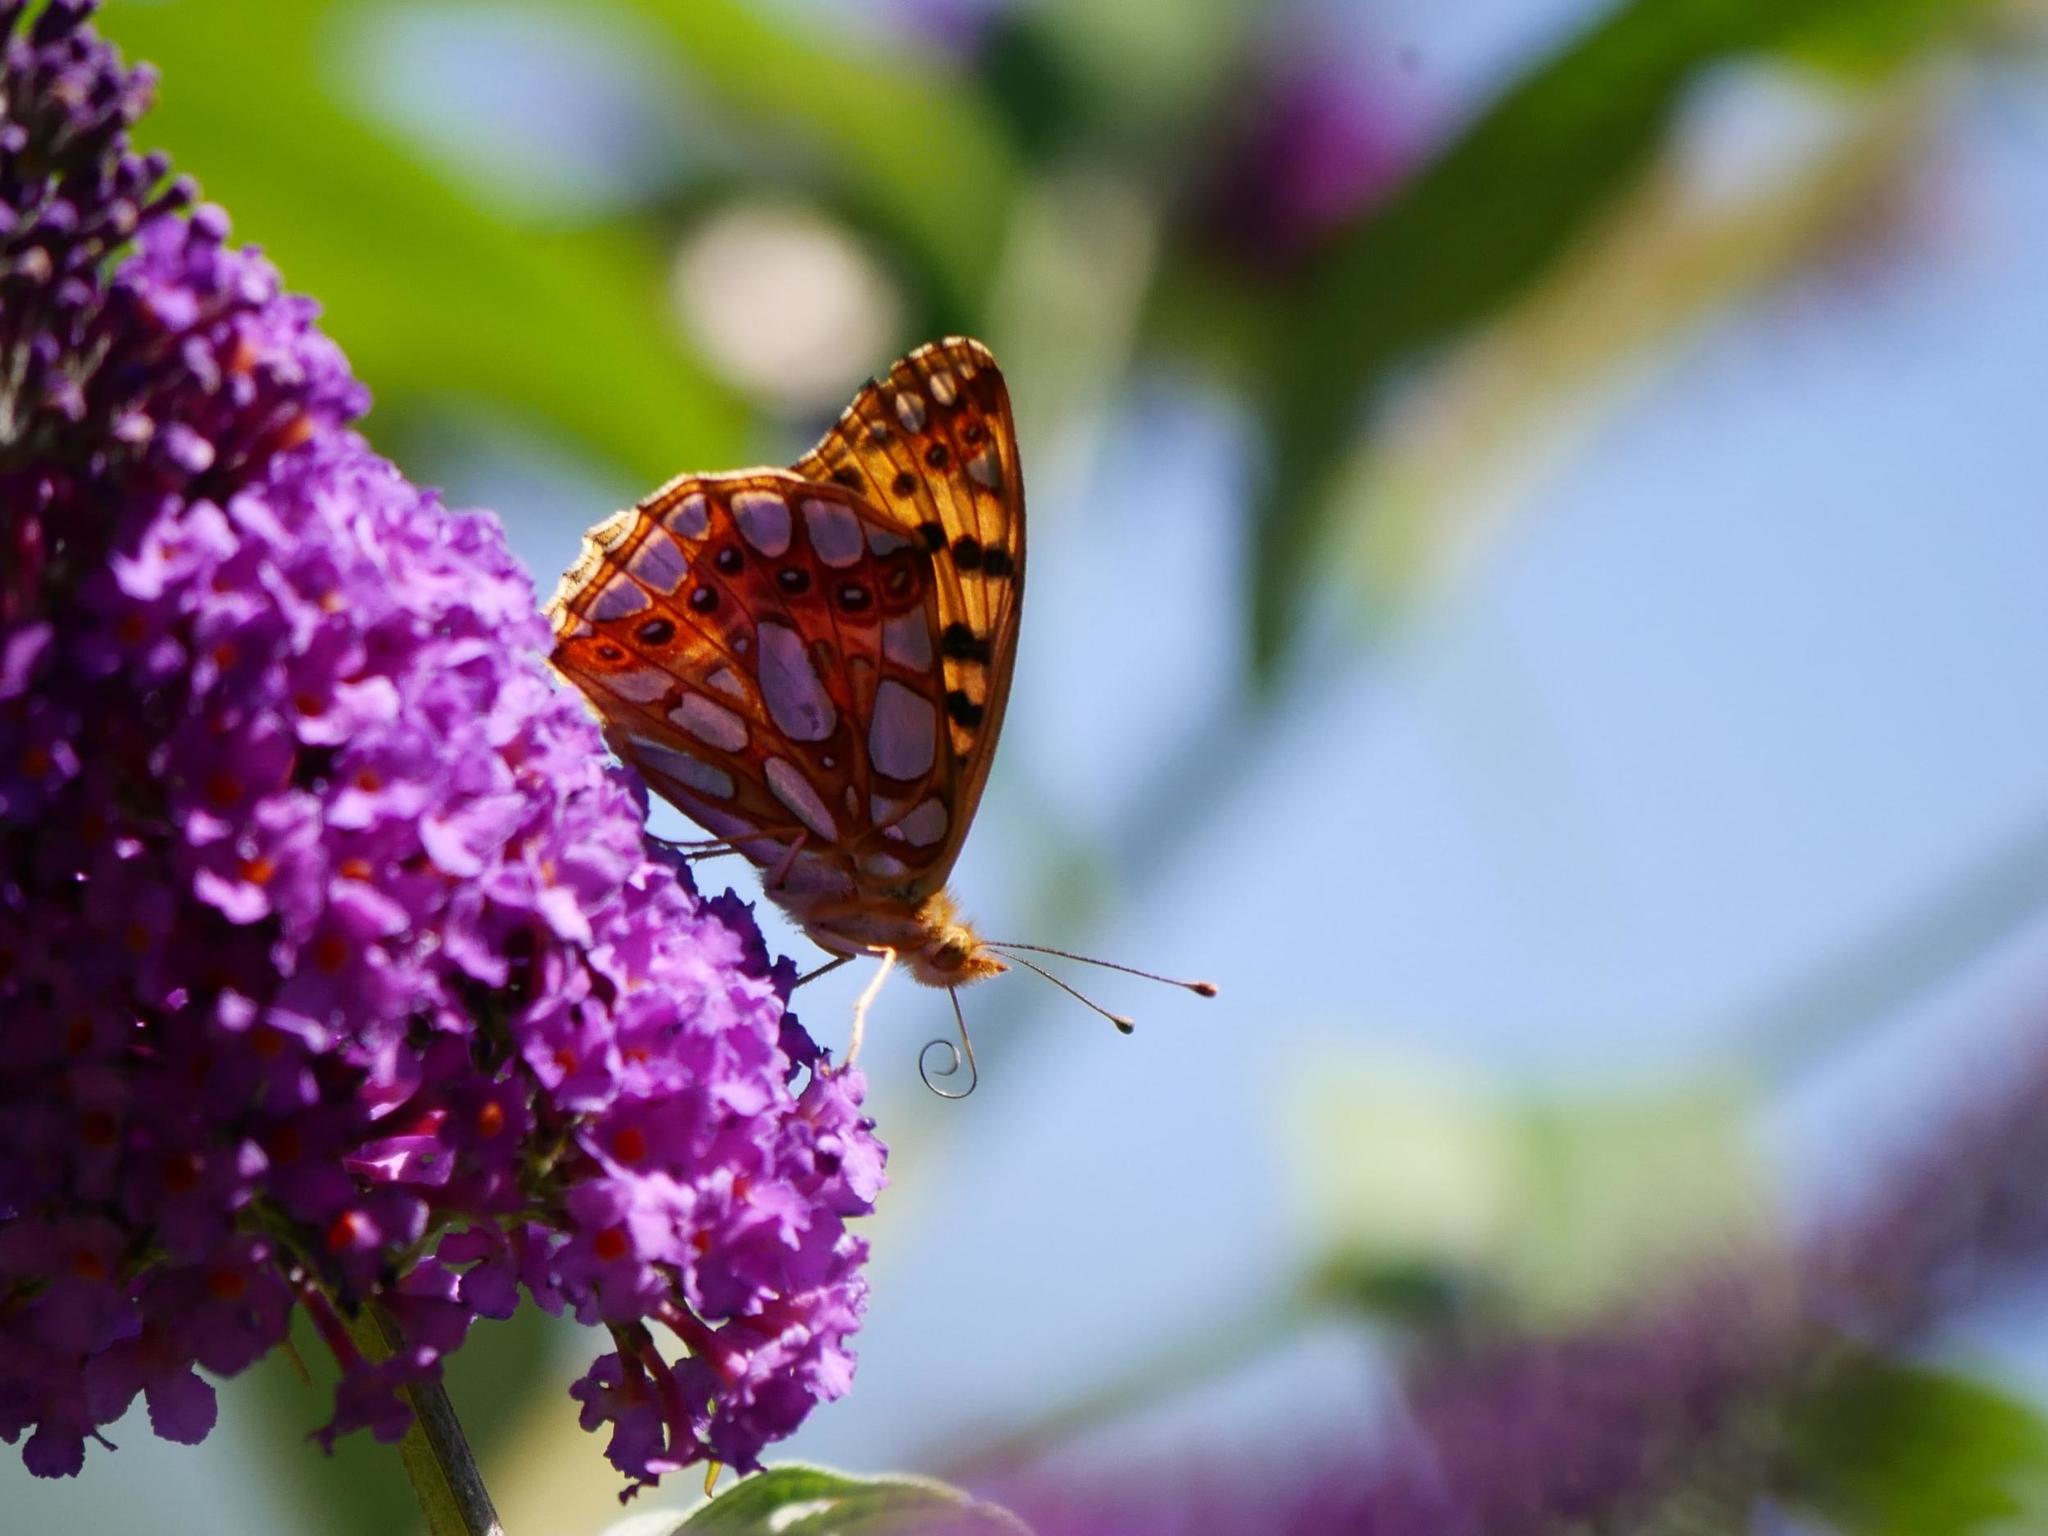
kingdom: Animalia
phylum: Arthropoda
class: Insecta
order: Lepidoptera
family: Nymphalidae
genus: Issoria
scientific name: Issoria lathonia
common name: Queen of spain fritillary
